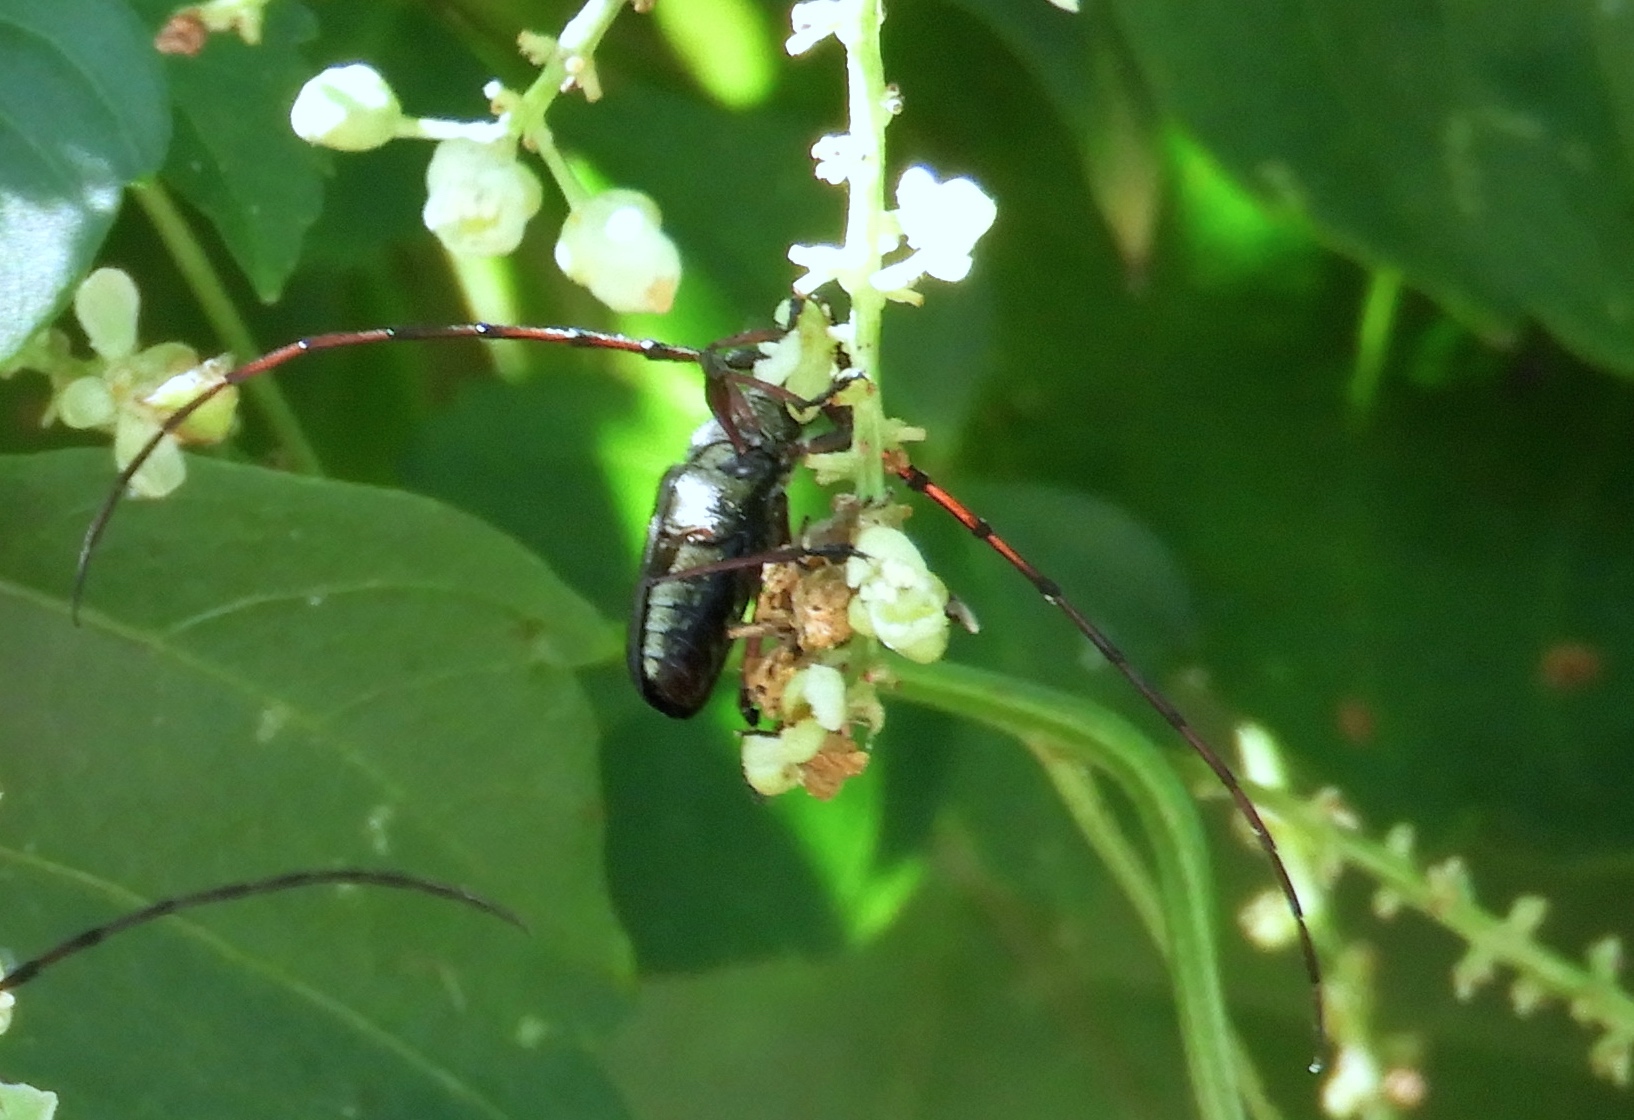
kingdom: Animalia
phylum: Arthropoda
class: Insecta
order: Coleoptera
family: Cerambycidae
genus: Sphaenothecus
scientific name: Sphaenothecus maccartyi
